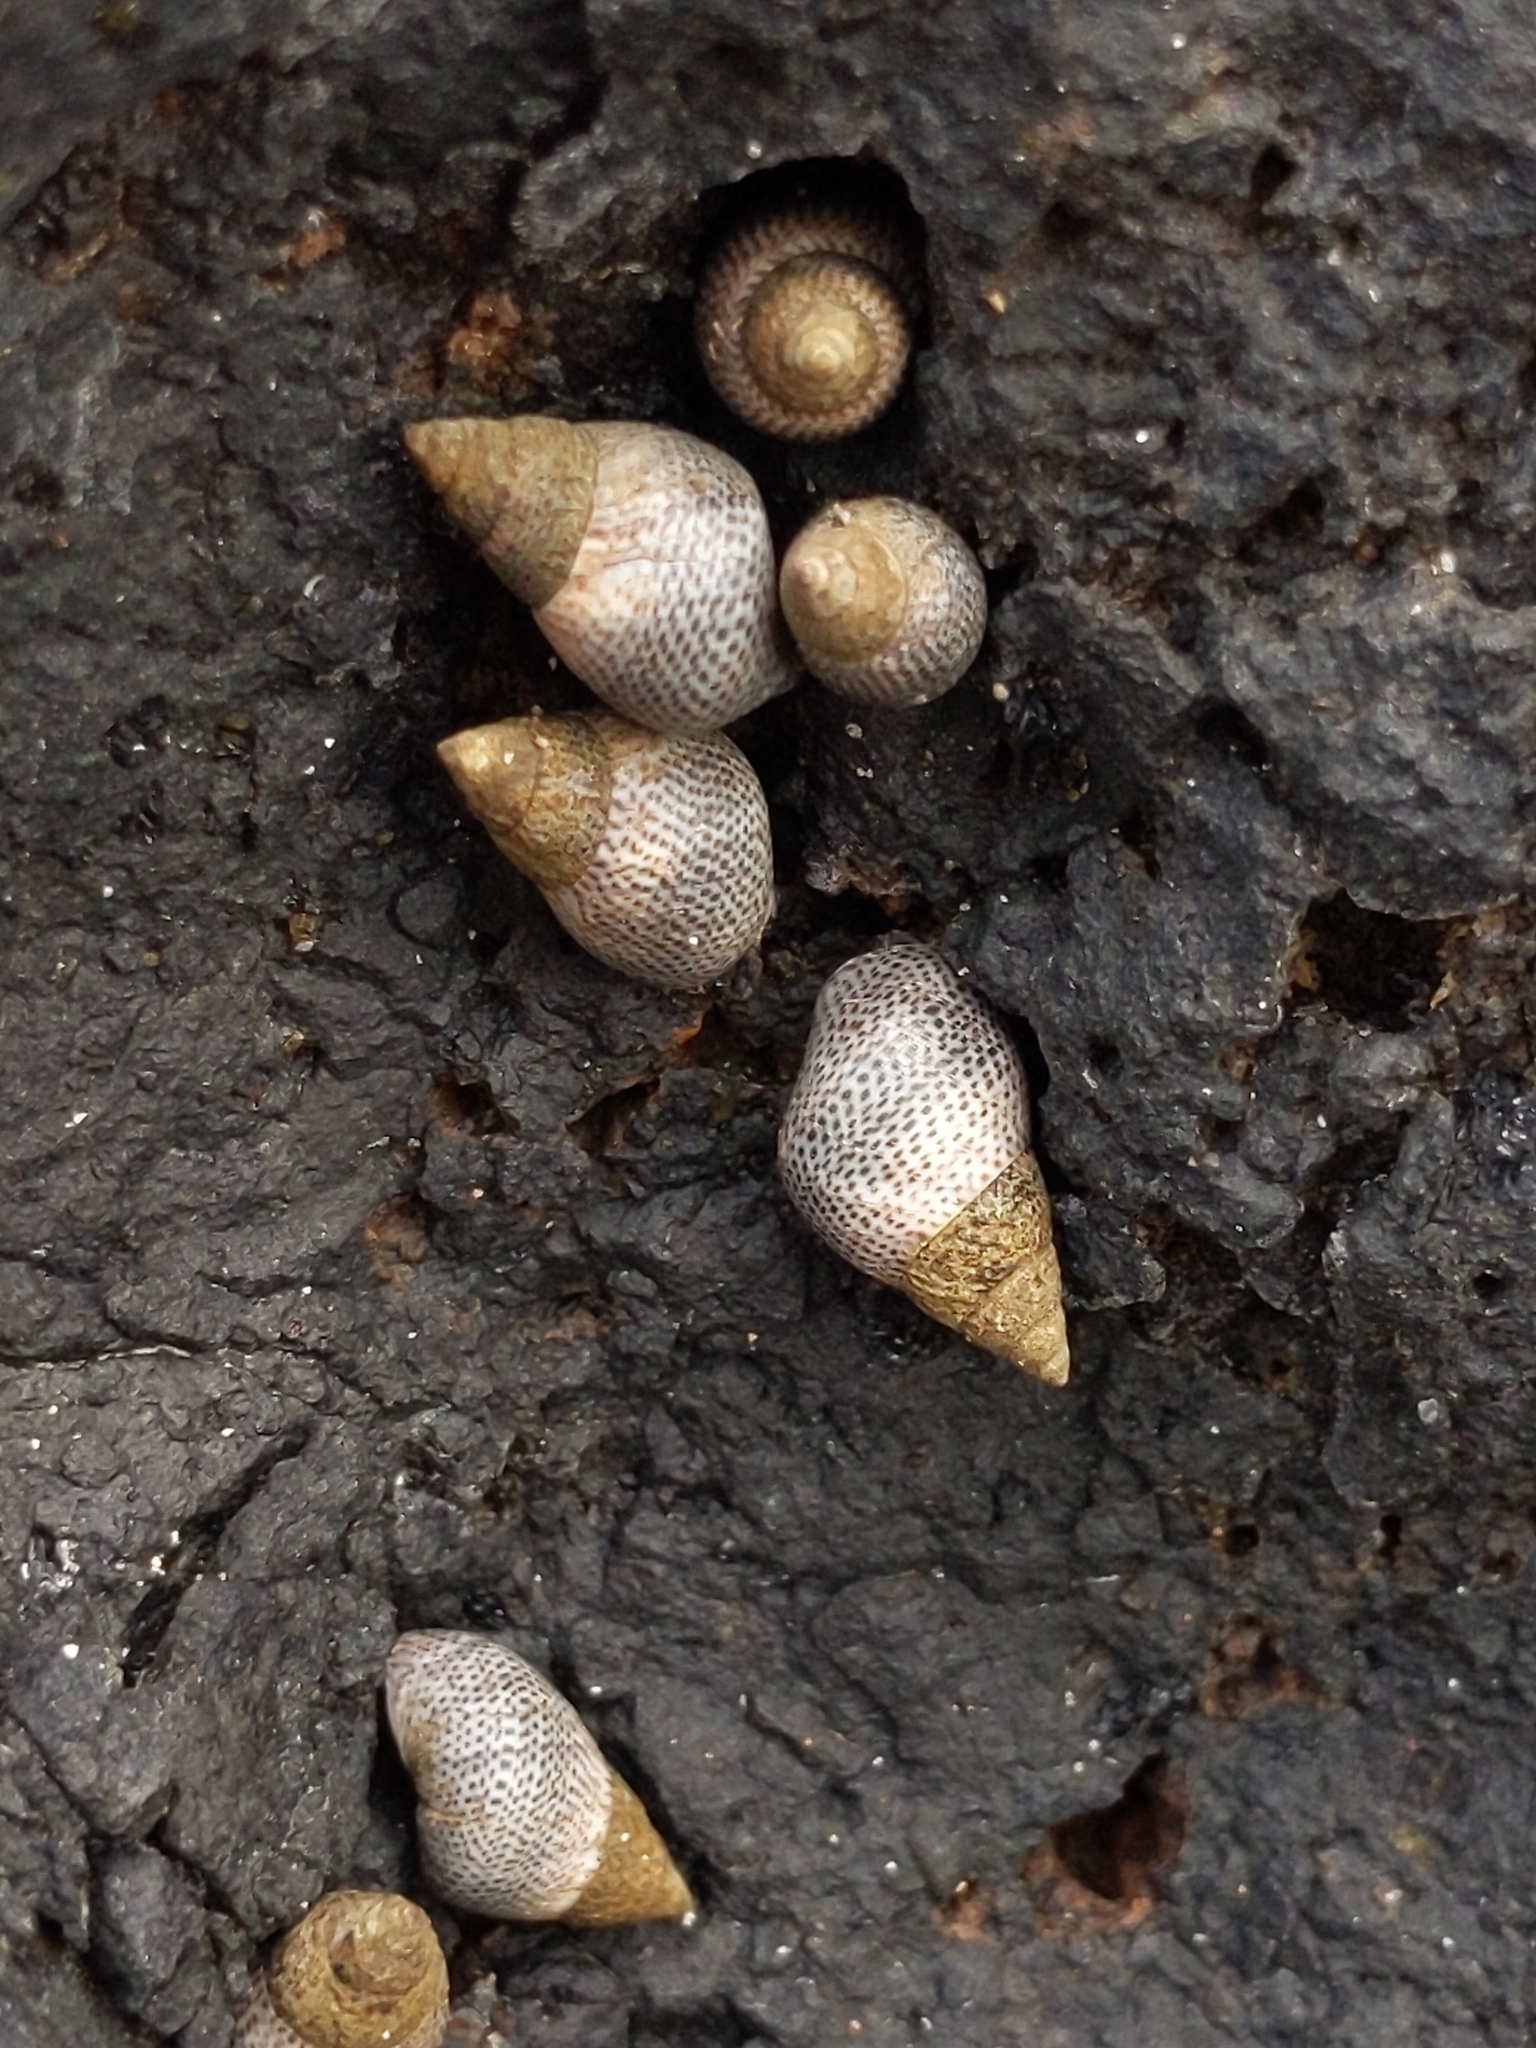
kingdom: Animalia
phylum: Mollusca
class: Gastropoda
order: Littorinimorpha
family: Littorinidae
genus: Littoraria
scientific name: Littoraria pintado
